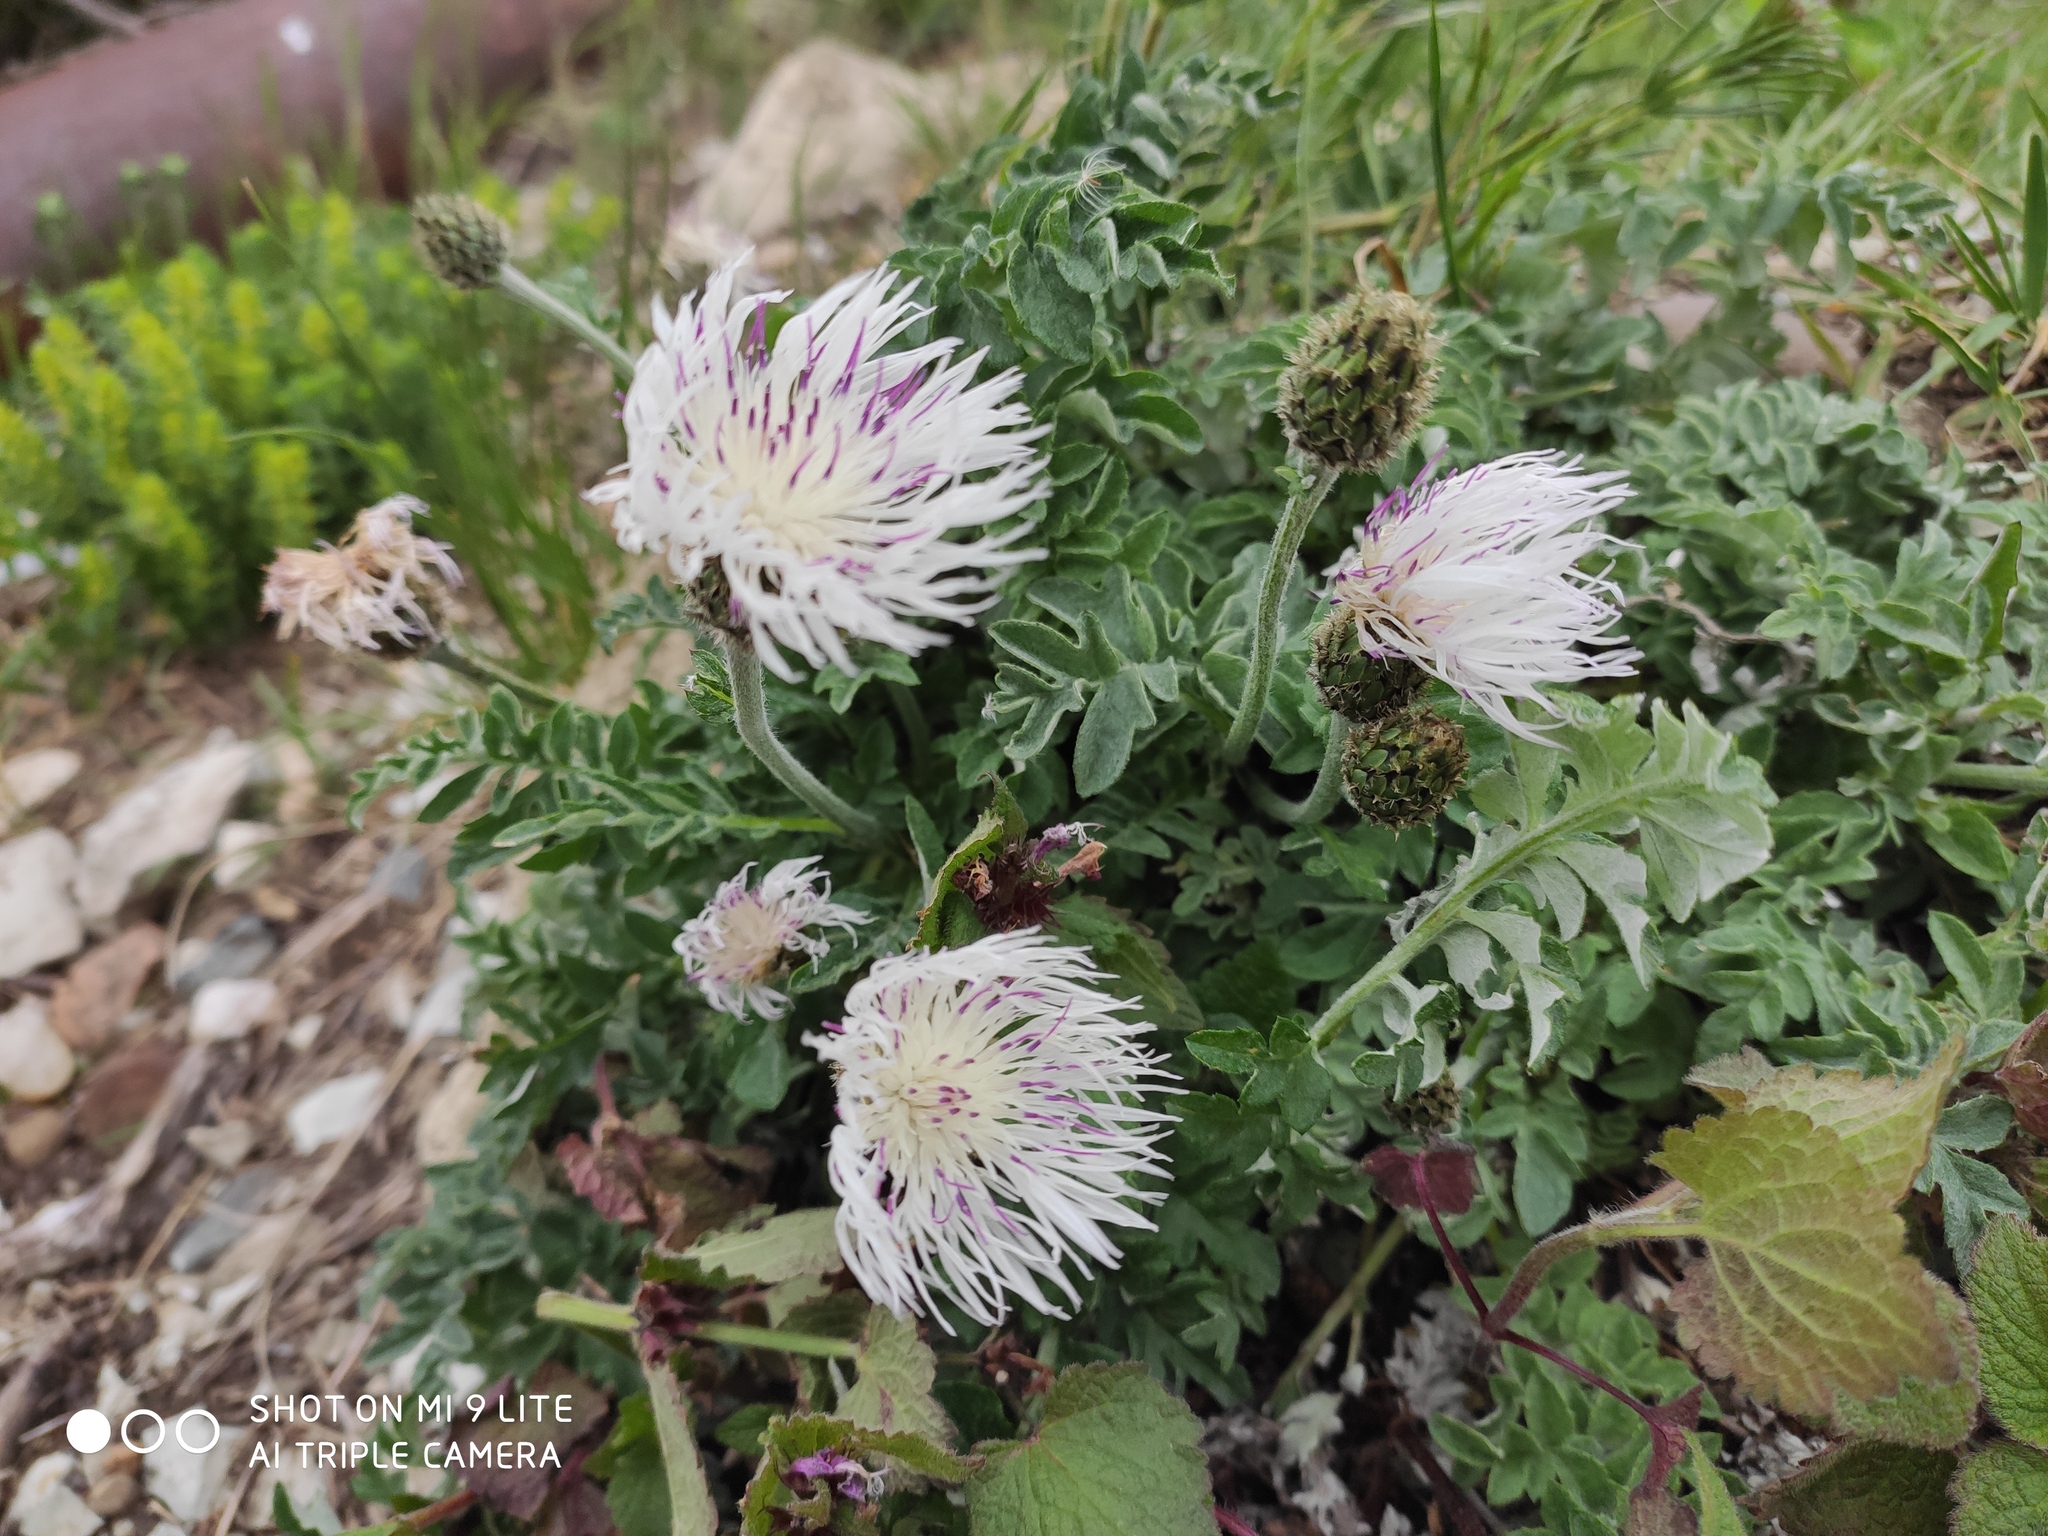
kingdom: Plantae
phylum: Tracheophyta
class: Magnoliopsida
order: Asterales
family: Asteraceae
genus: Psephellus
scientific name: Psephellus declinatus
